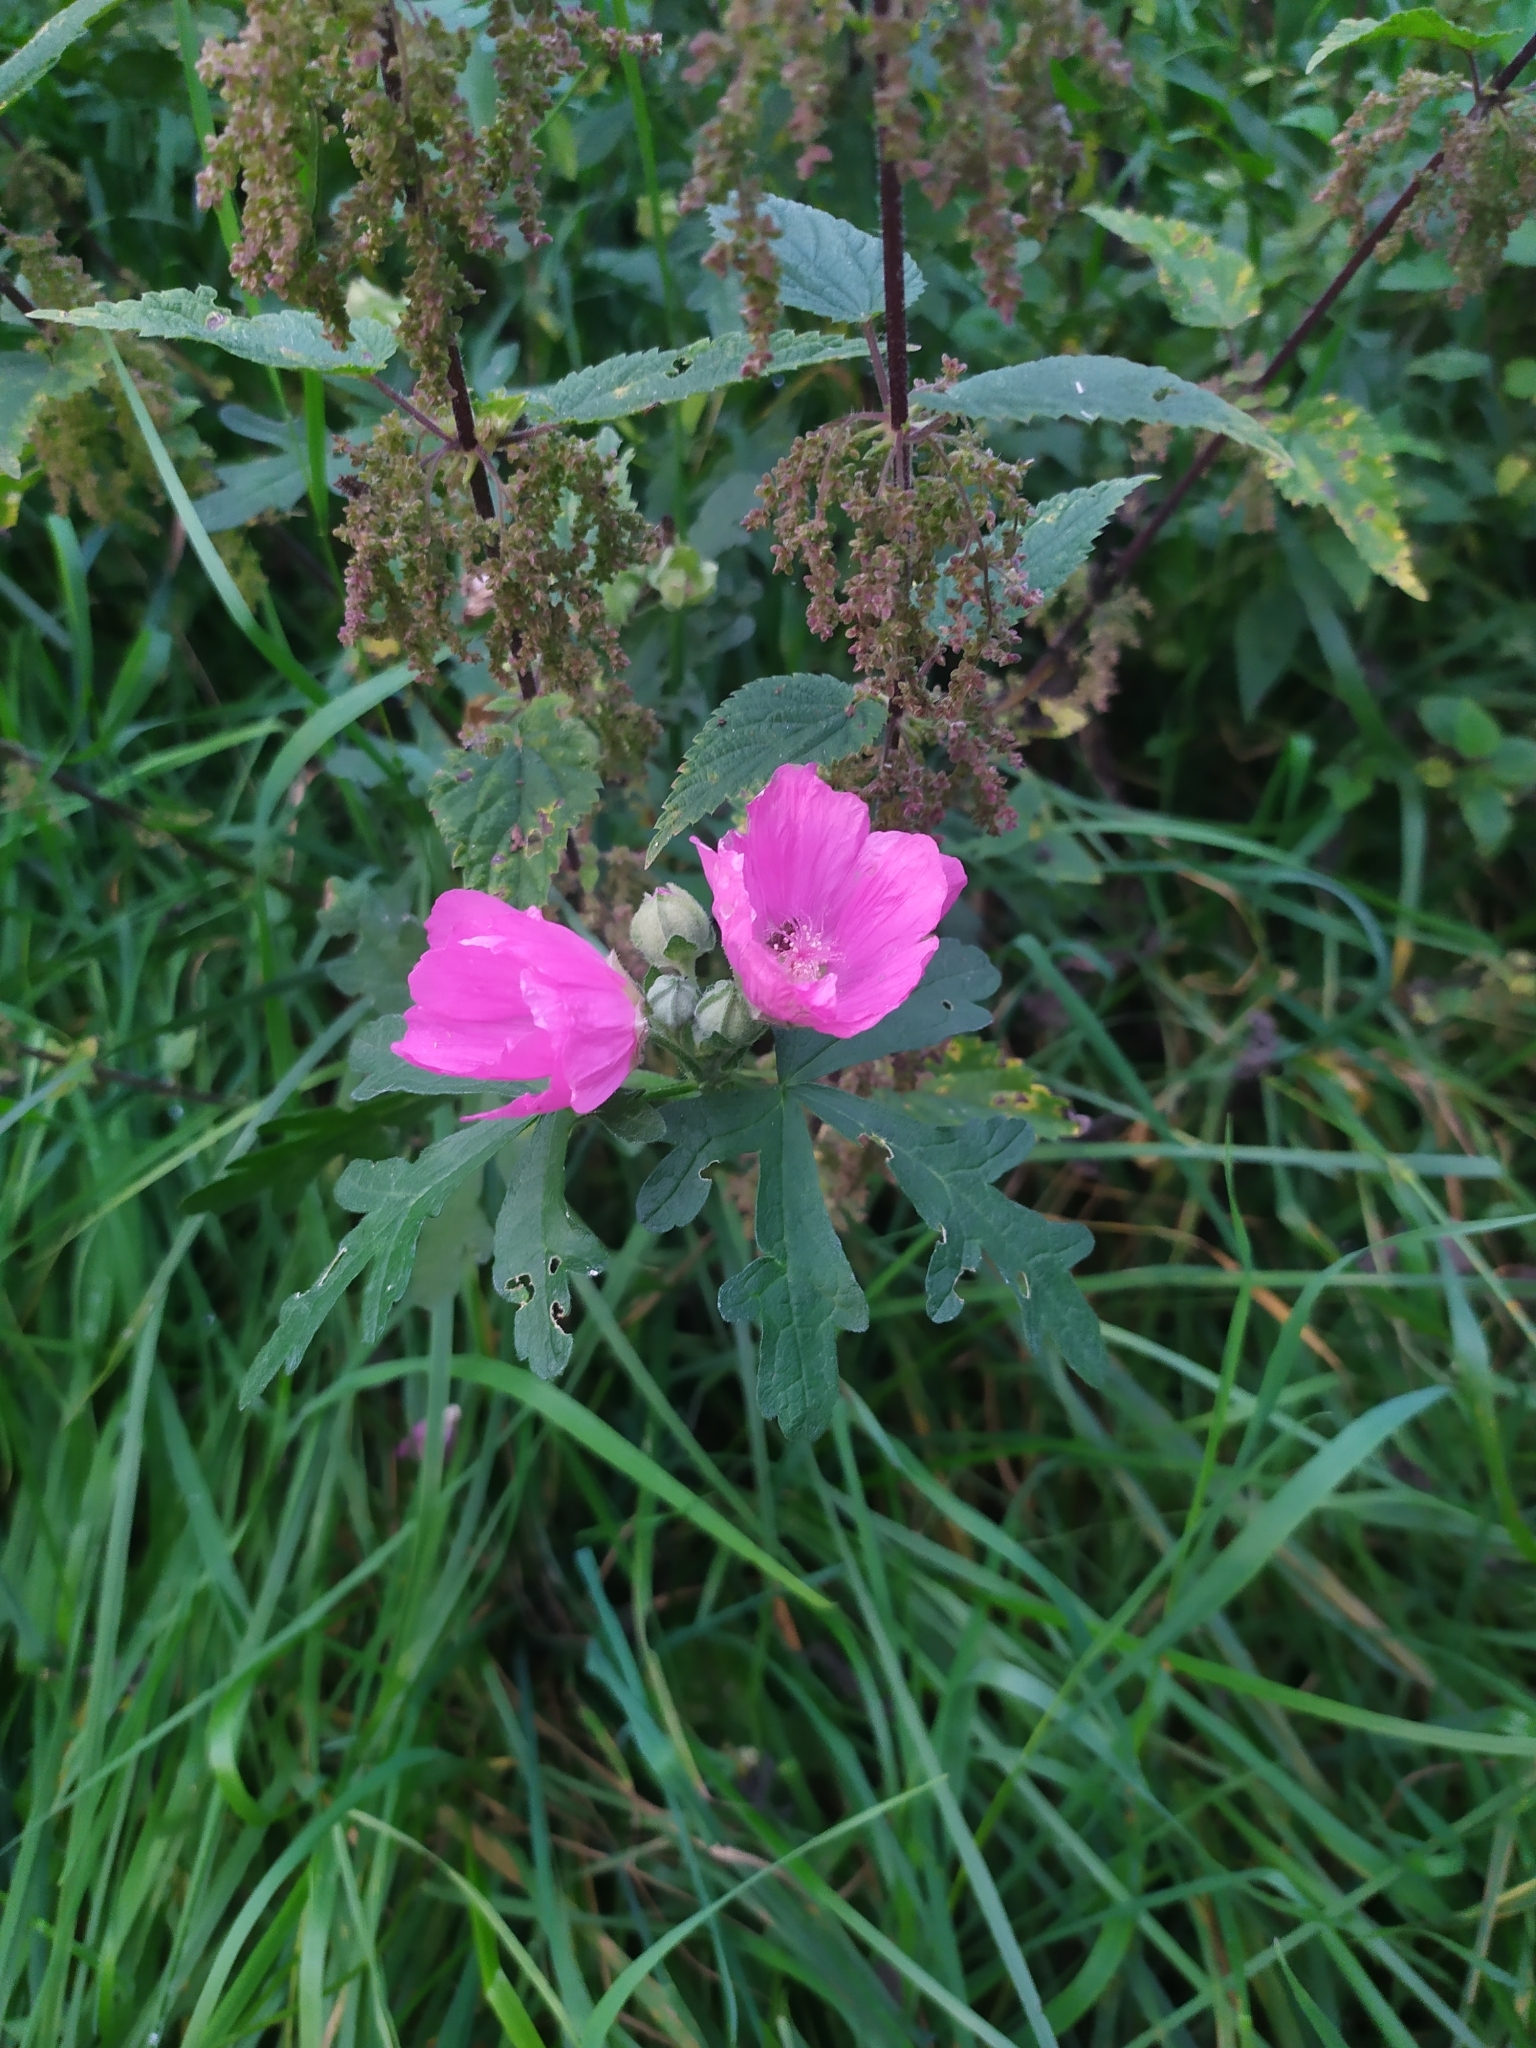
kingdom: Plantae
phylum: Tracheophyta
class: Magnoliopsida
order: Malvales
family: Malvaceae
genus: Malva
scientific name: Malva alcea
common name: Greater musk-mallow
